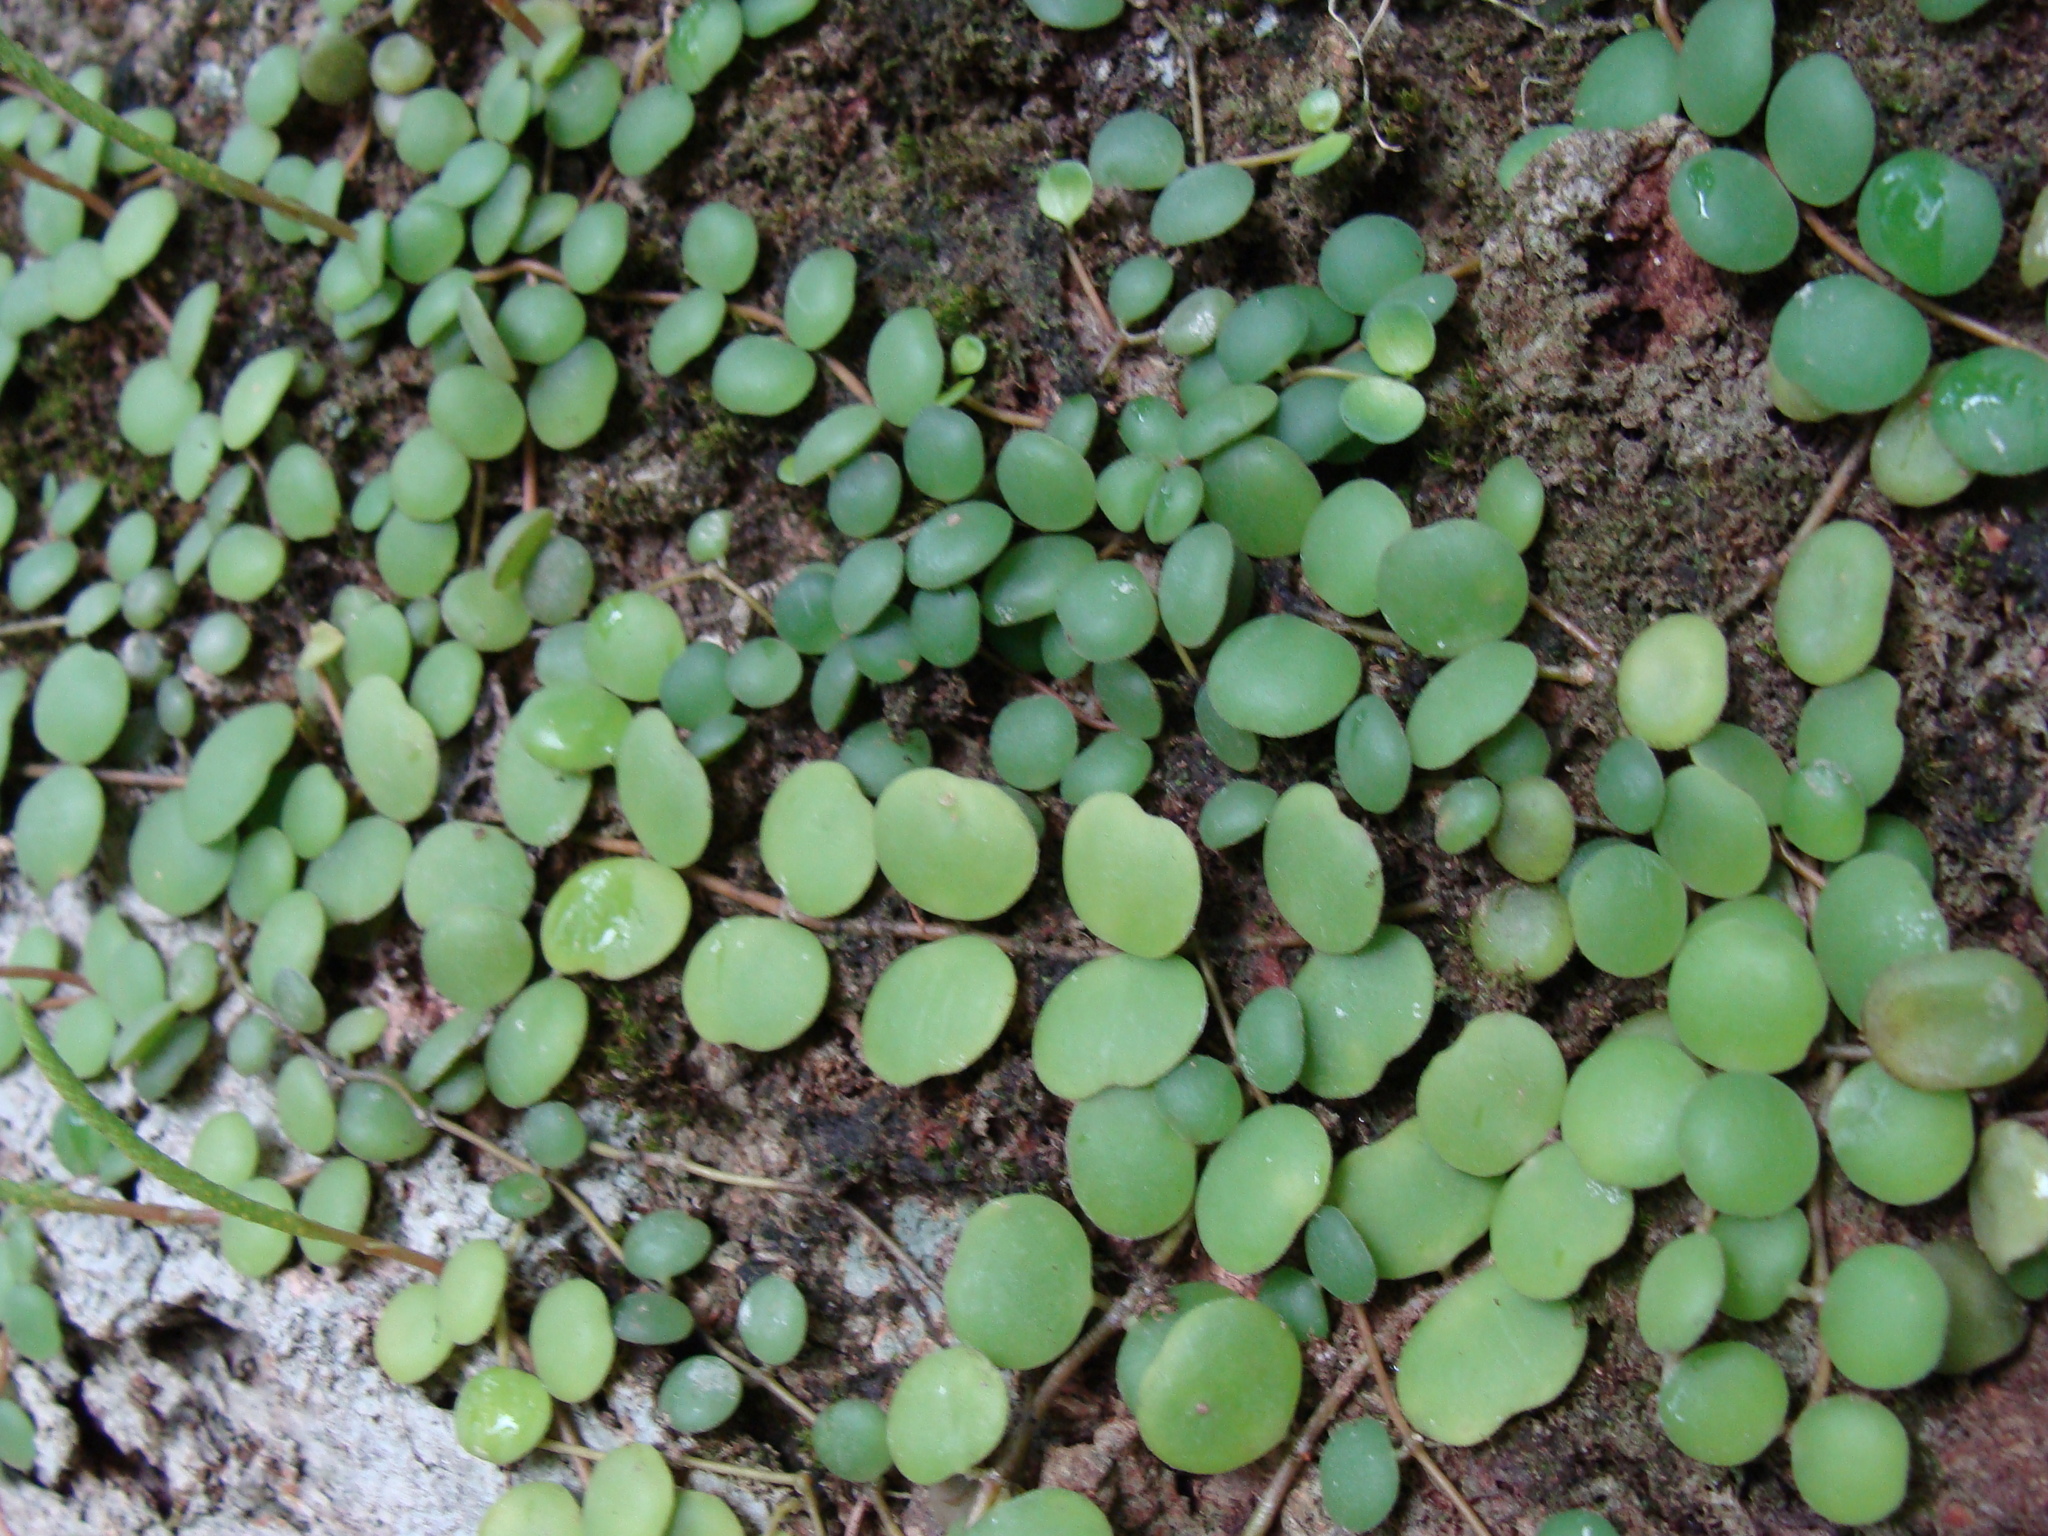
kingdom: Plantae
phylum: Tracheophyta
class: Magnoliopsida
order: Piperales
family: Piperaceae
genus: Peperomia
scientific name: Peperomia cyclophylla
